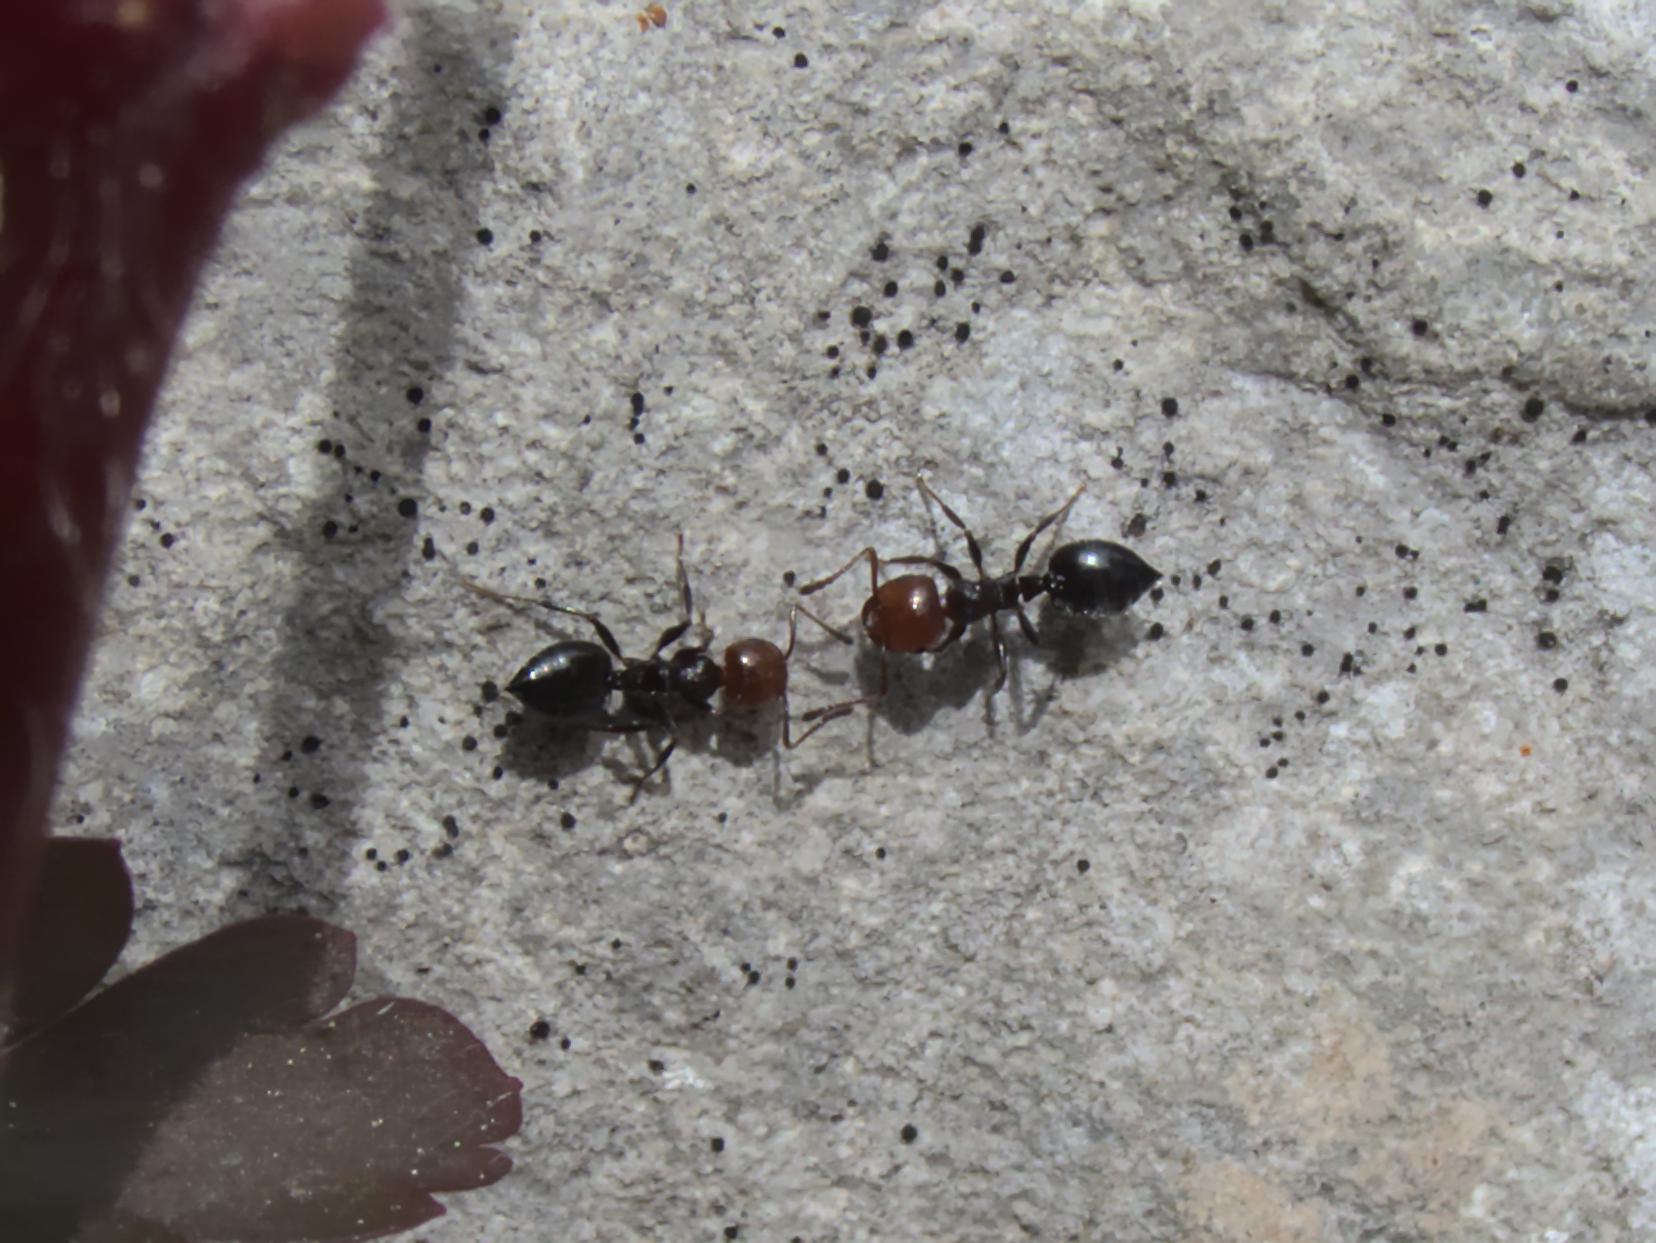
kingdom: Animalia
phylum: Arthropoda
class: Insecta
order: Hymenoptera
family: Formicidae
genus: Crematogaster
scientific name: Crematogaster scutellaris
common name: Fourmi du liège
